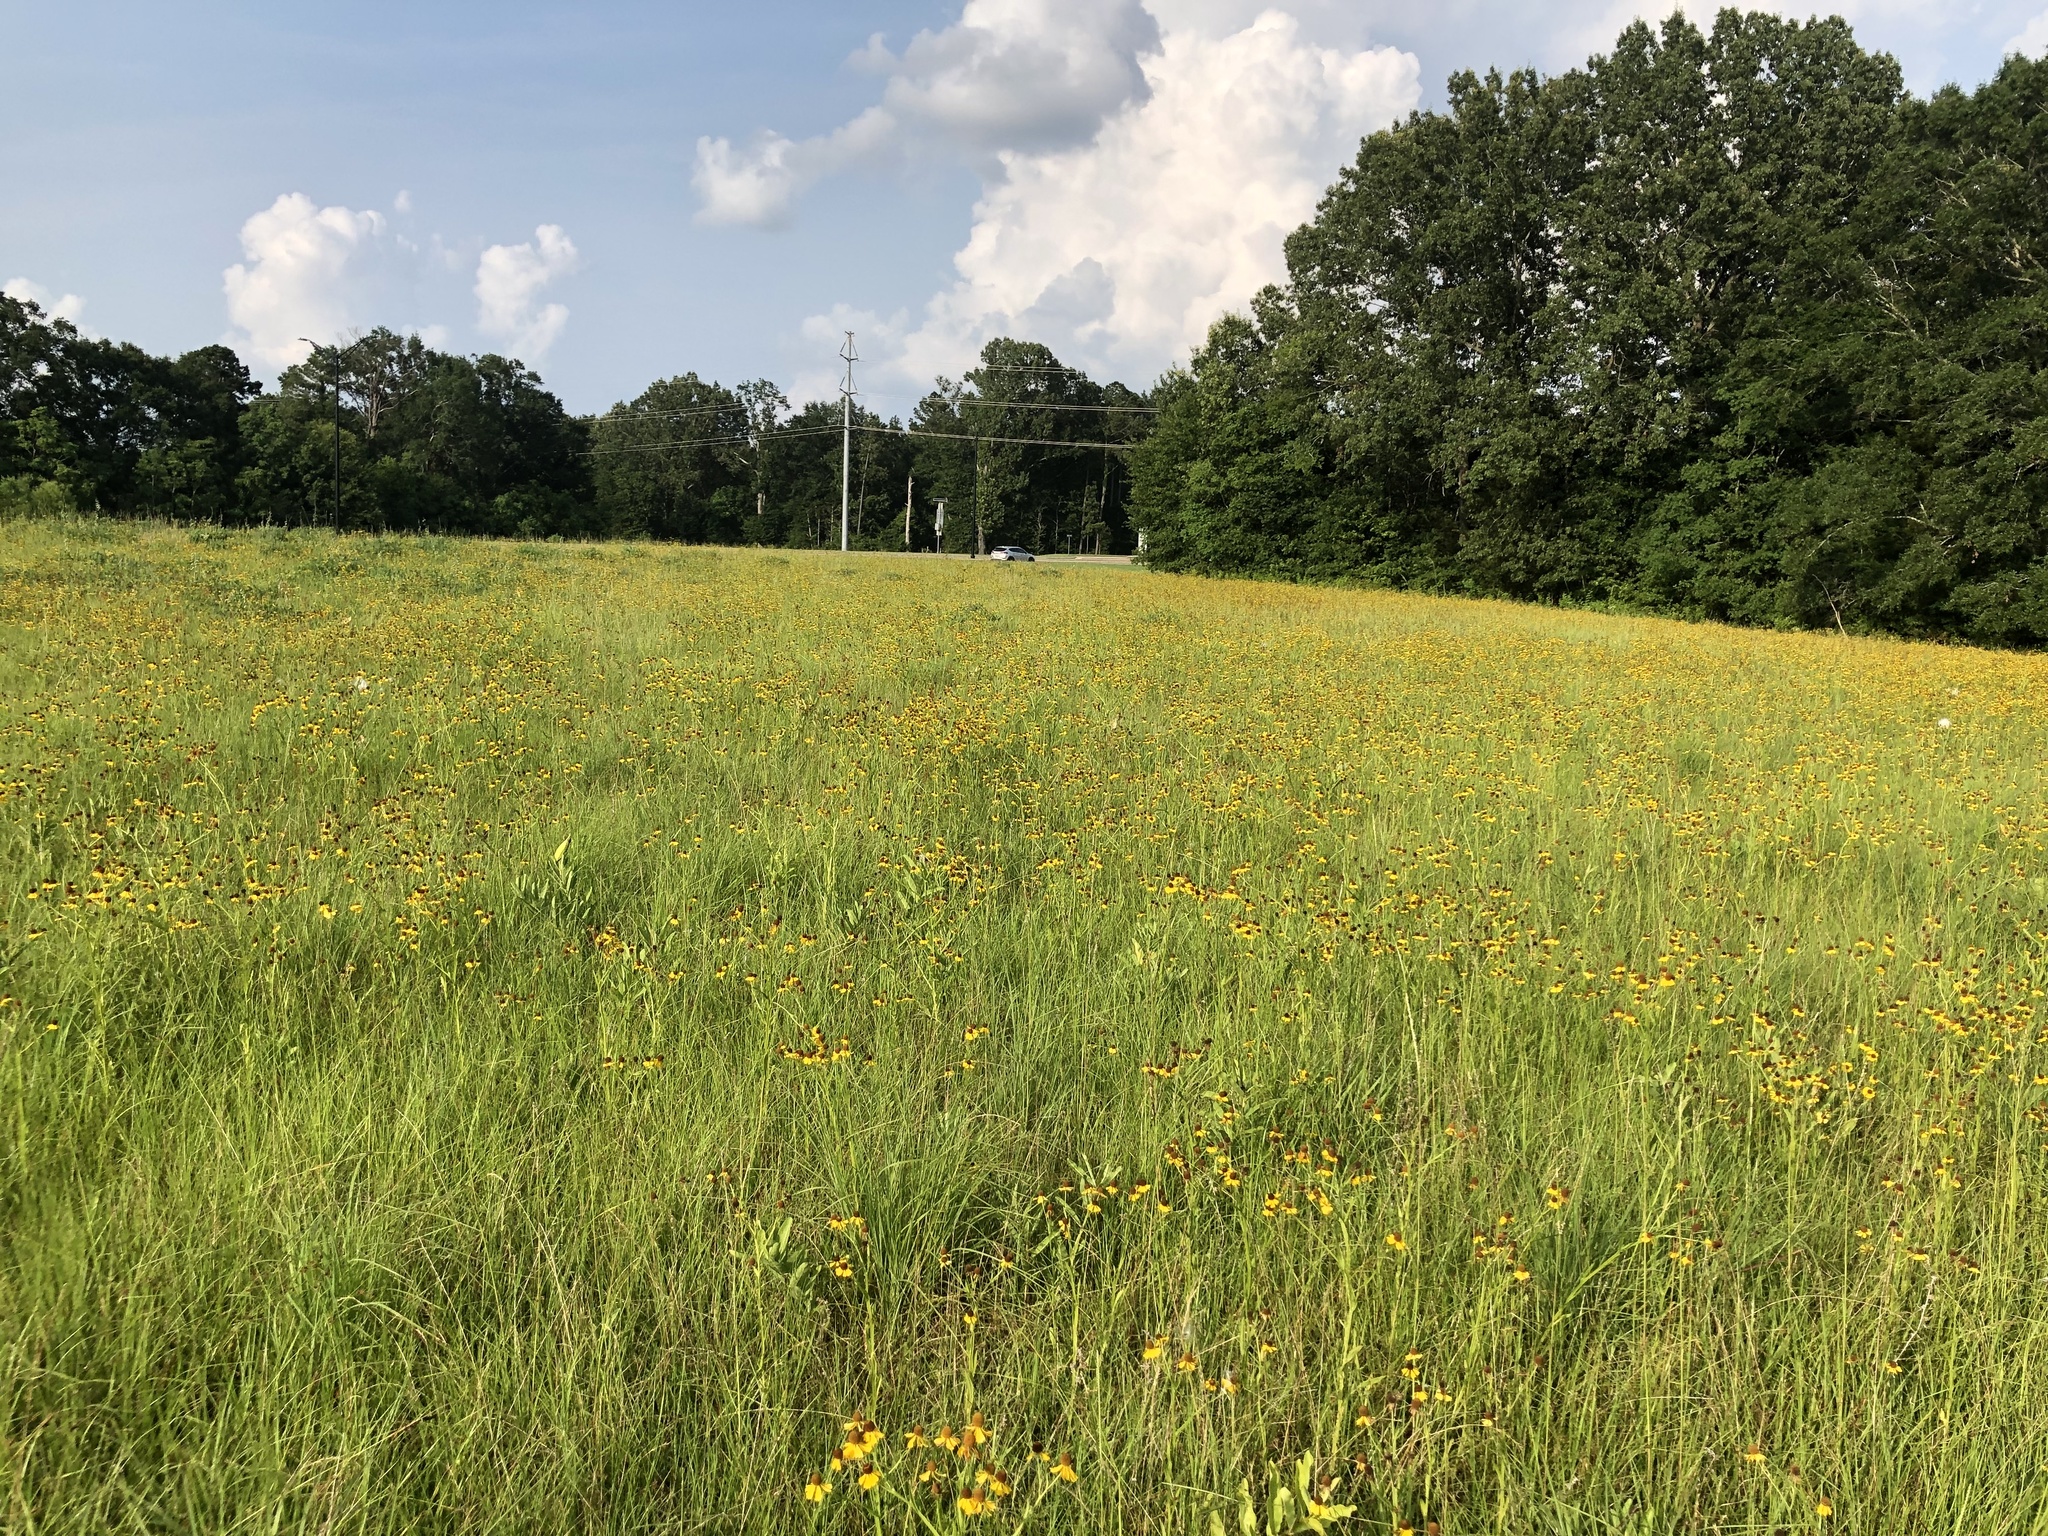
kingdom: Plantae
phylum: Tracheophyta
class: Magnoliopsida
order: Asterales
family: Asteraceae
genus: Helenium
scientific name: Helenium flexuosum
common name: Naked-flowered sneezeweed
